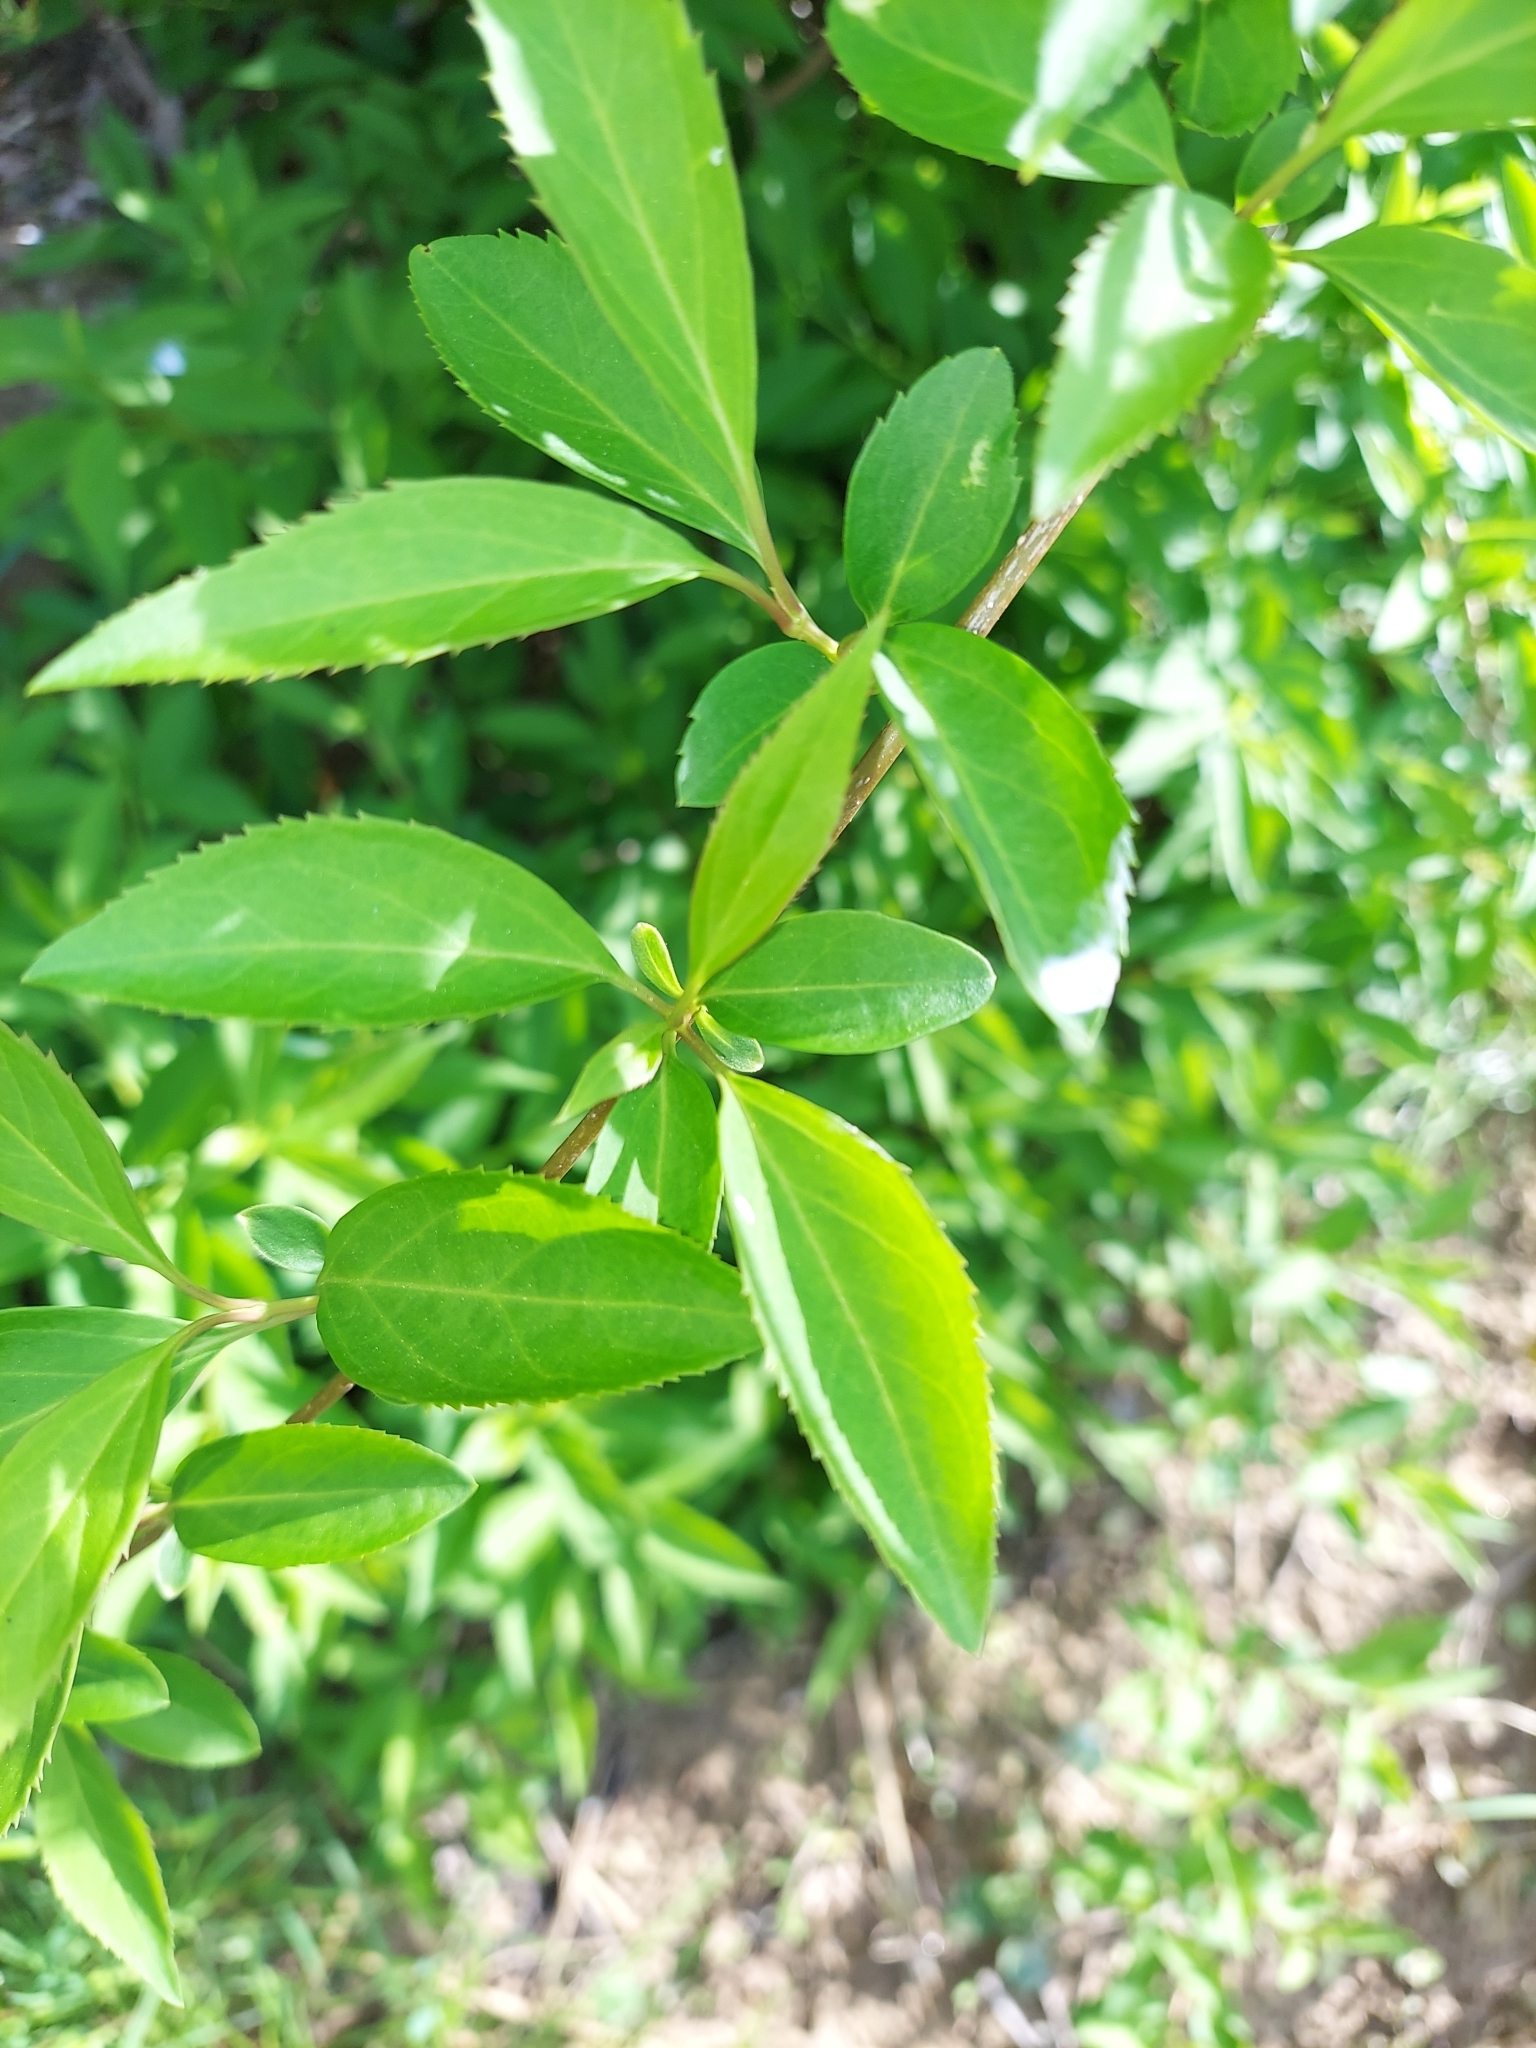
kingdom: Plantae
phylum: Tracheophyta
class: Magnoliopsida
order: Lamiales
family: Oleaceae
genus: Forsythia
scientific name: Forsythia intermedia
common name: Forsythia
